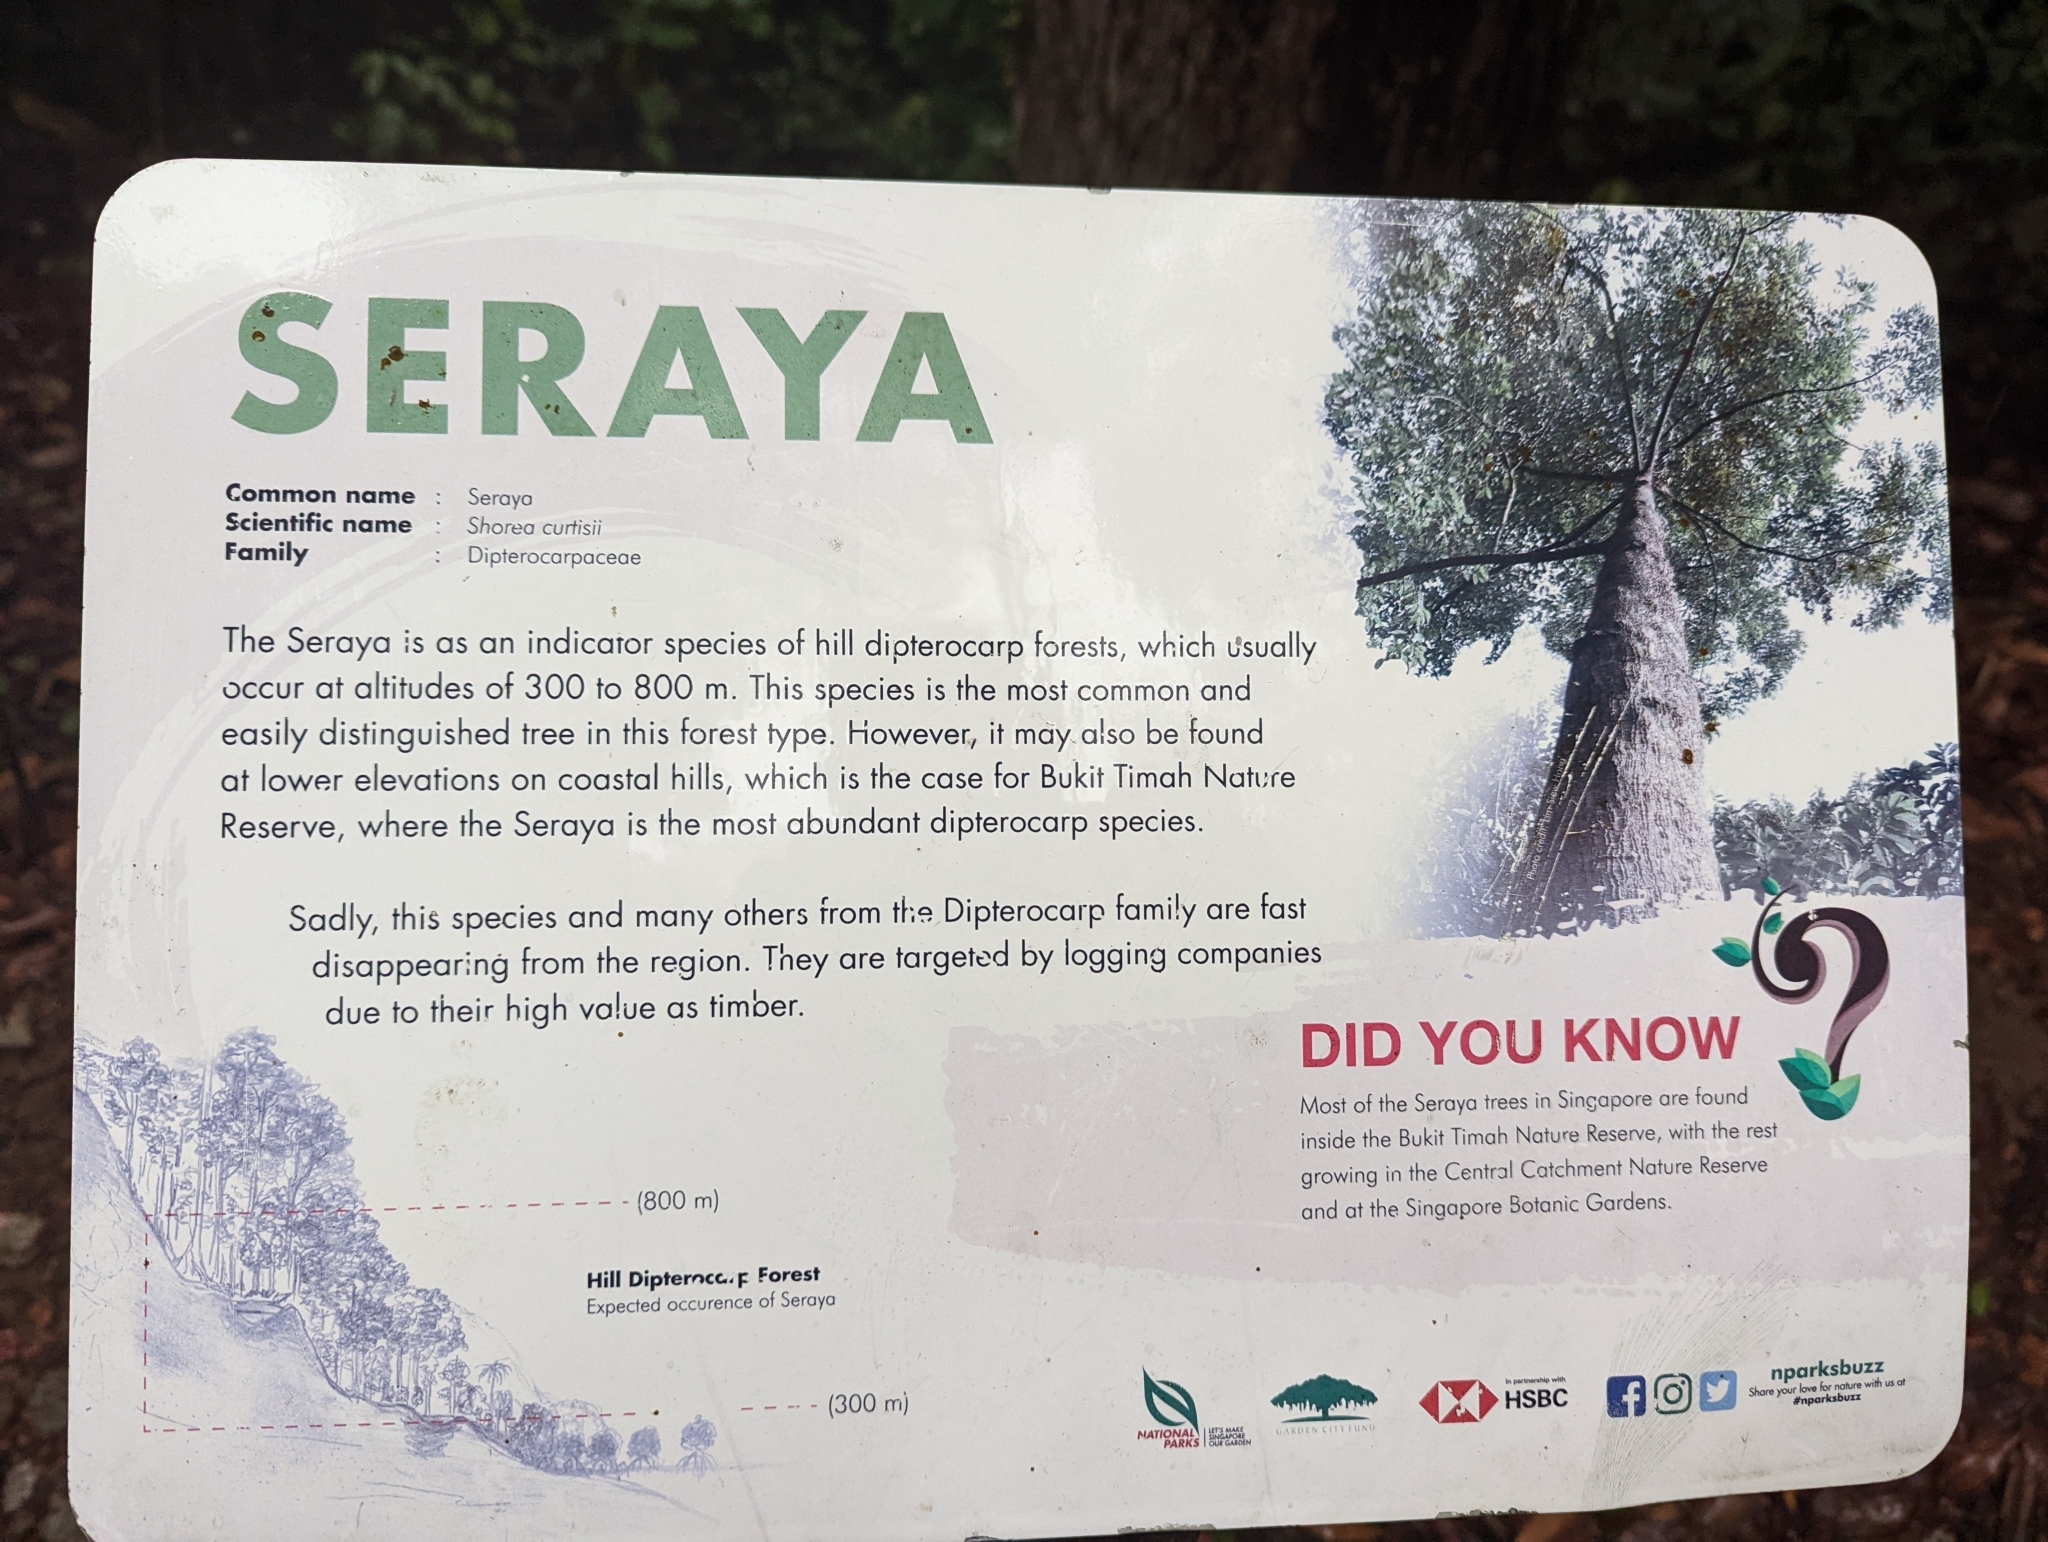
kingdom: Plantae
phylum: Tracheophyta
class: Magnoliopsida
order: Malvales
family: Dipterocarpaceae
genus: Shorea
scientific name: Shorea curtisii
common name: Dark red meranti
